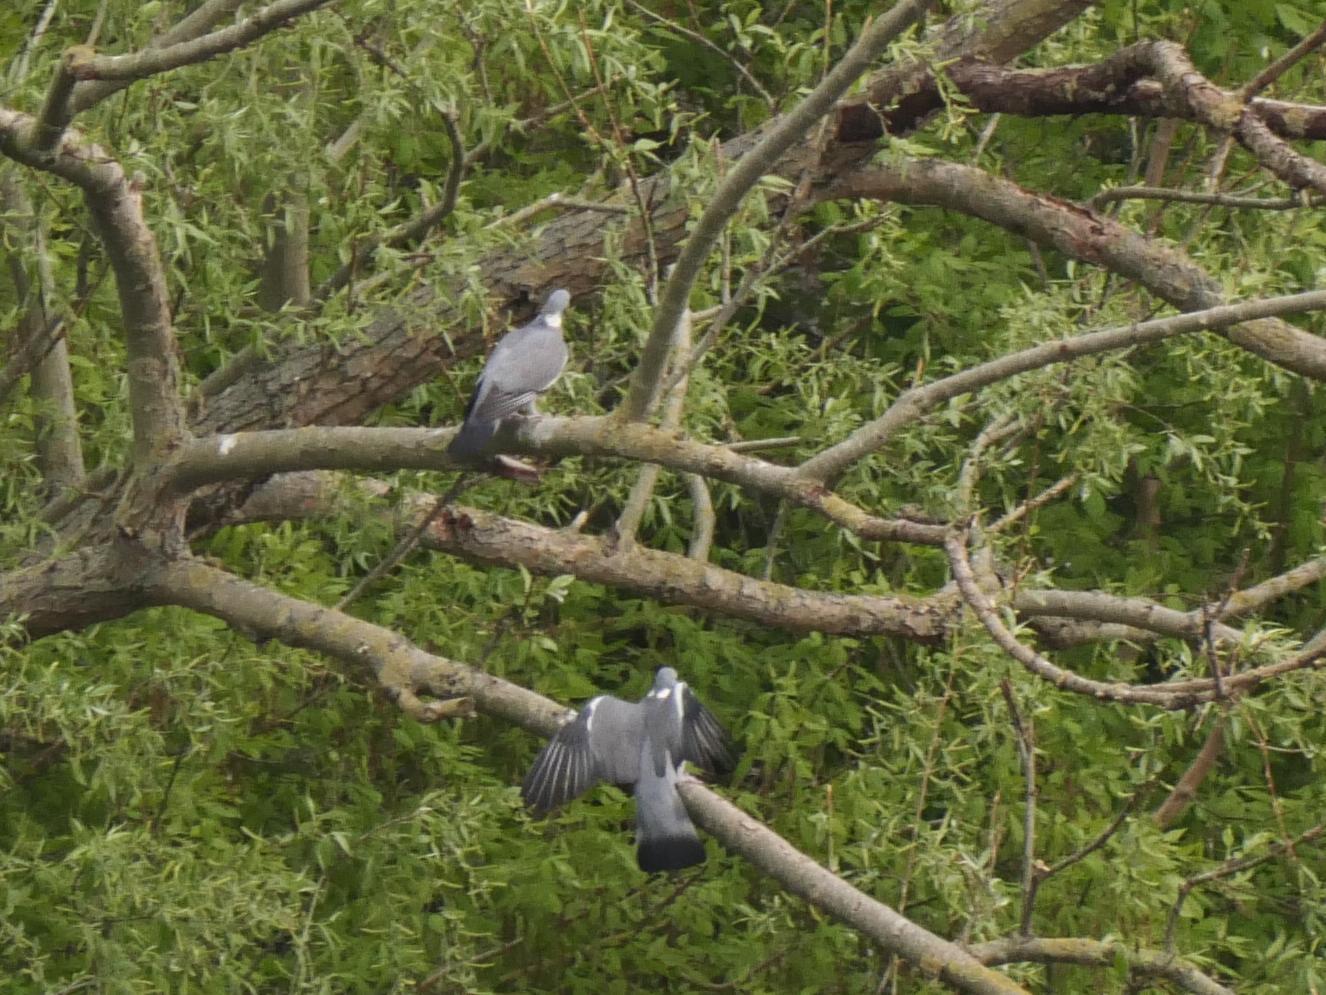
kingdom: Animalia
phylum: Chordata
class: Aves
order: Columbiformes
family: Columbidae
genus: Columba
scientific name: Columba palumbus
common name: Common wood pigeon
